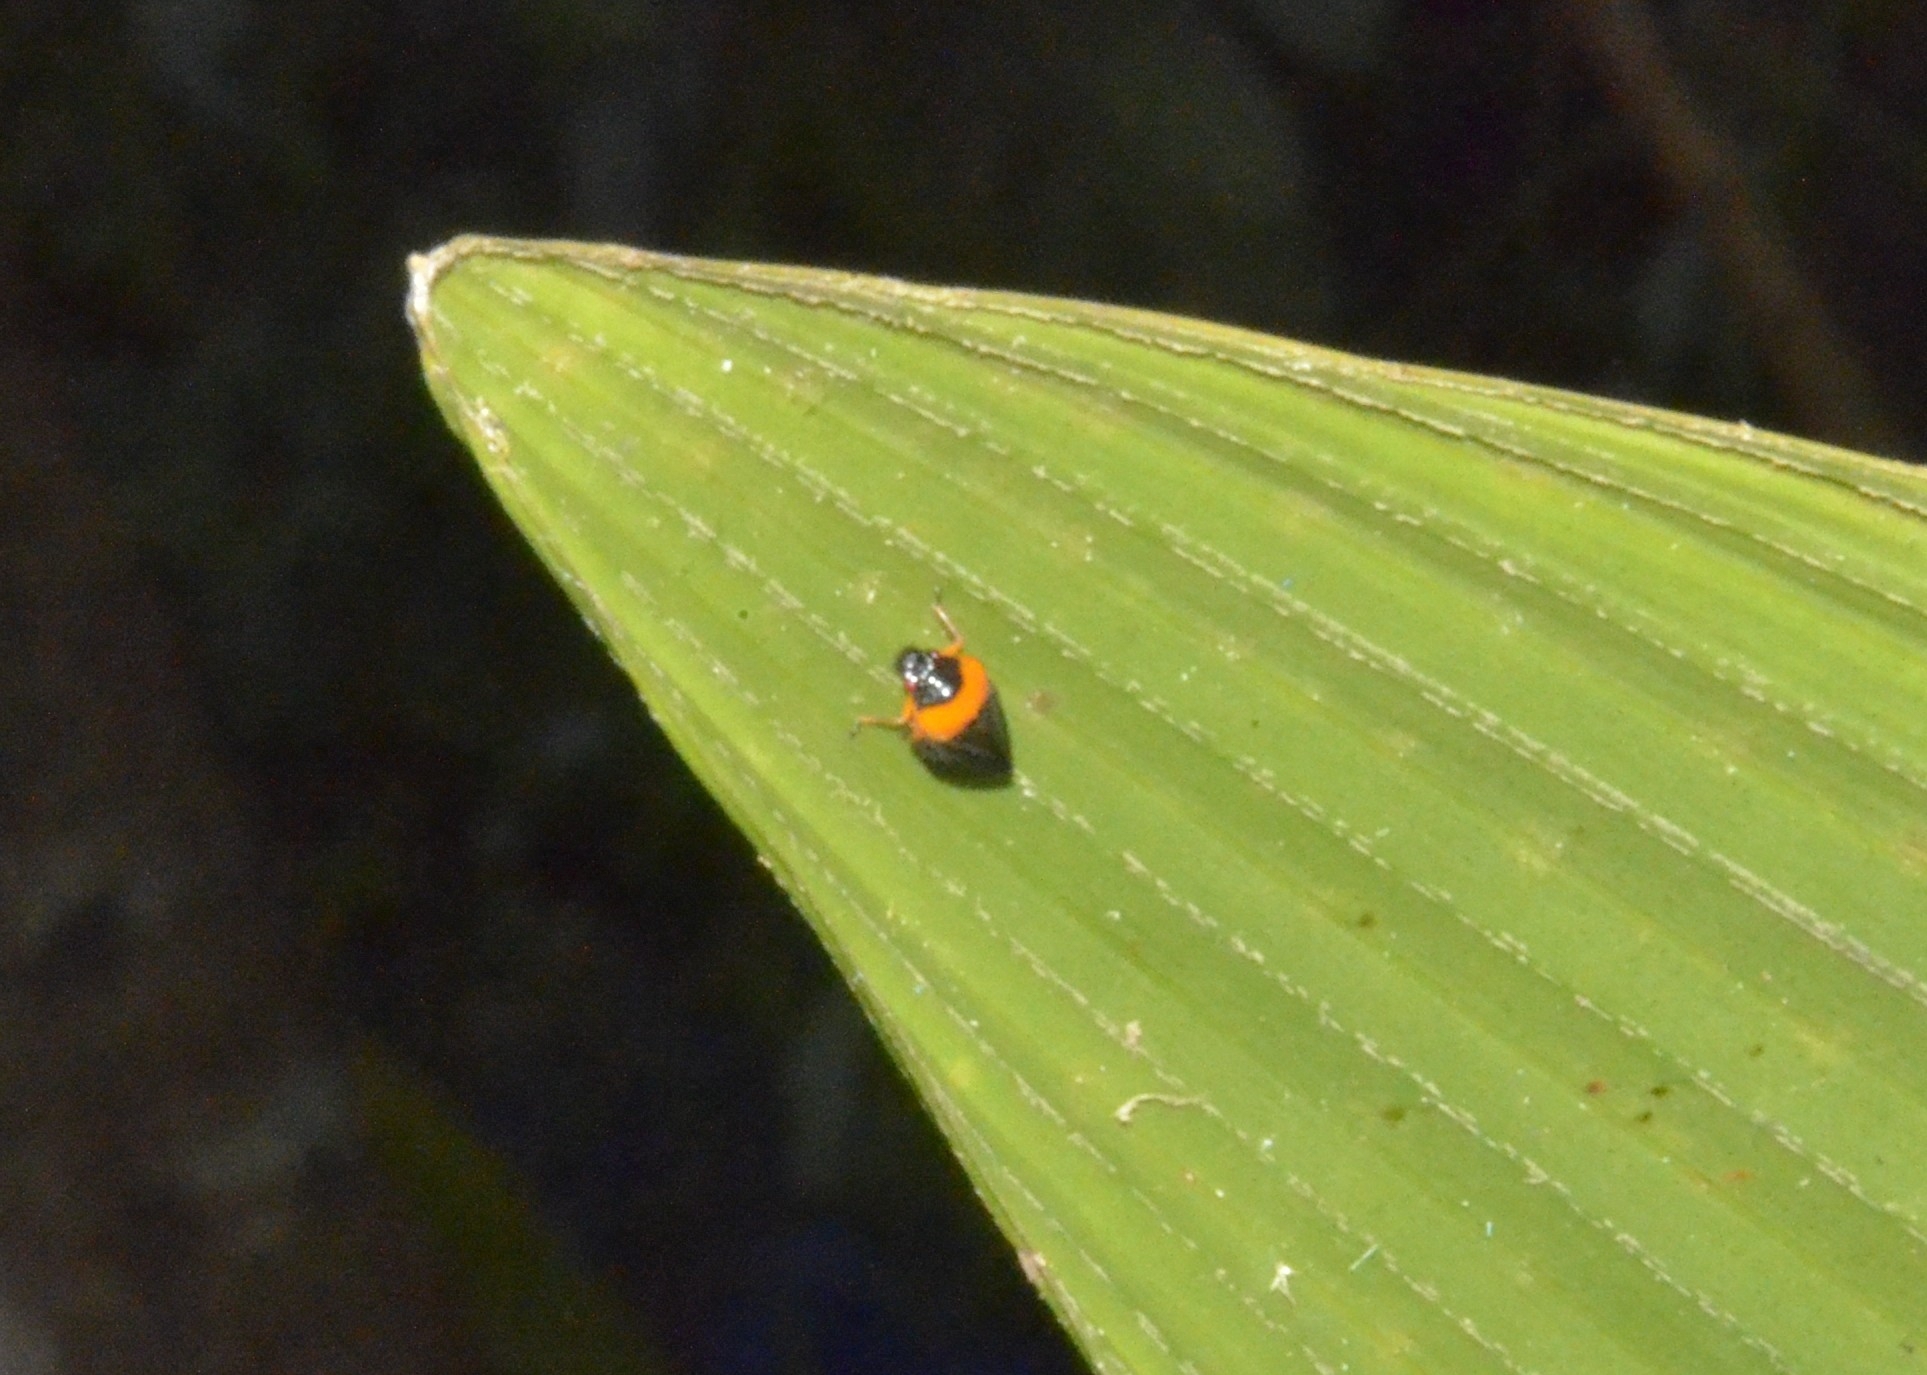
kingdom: Animalia
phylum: Arthropoda
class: Insecta
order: Hemiptera
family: Cercopidae
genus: Phymatostetha
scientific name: Phymatostetha deschampsi
